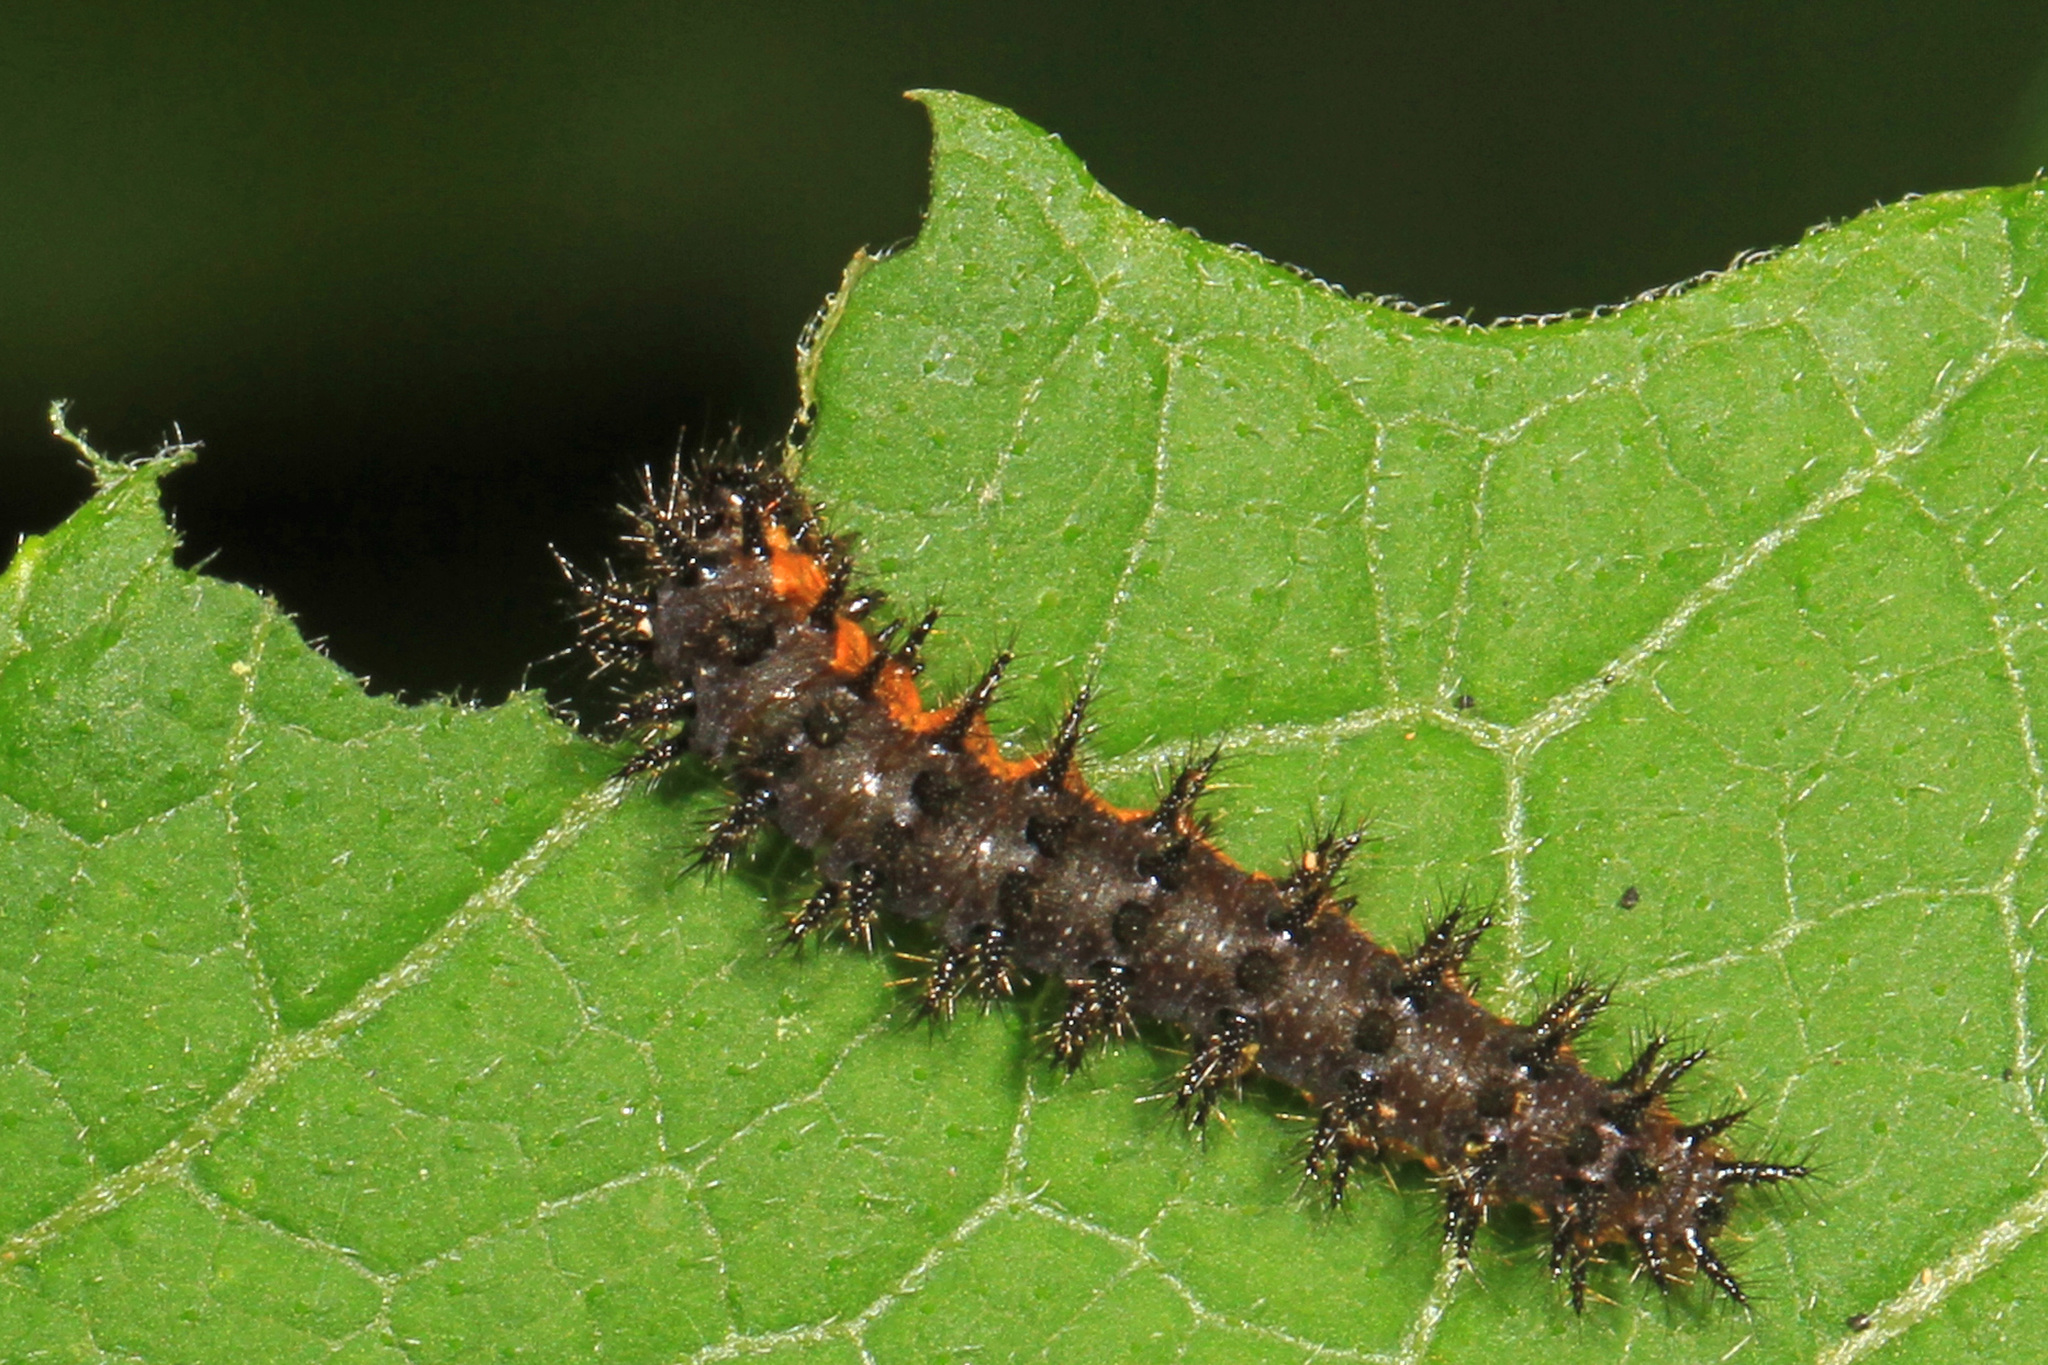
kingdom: Animalia
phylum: Arthropoda
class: Insecta
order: Lepidoptera
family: Nymphalidae
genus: Chlosyne
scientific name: Chlosyne nycteis
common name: Silvery checkerspot
